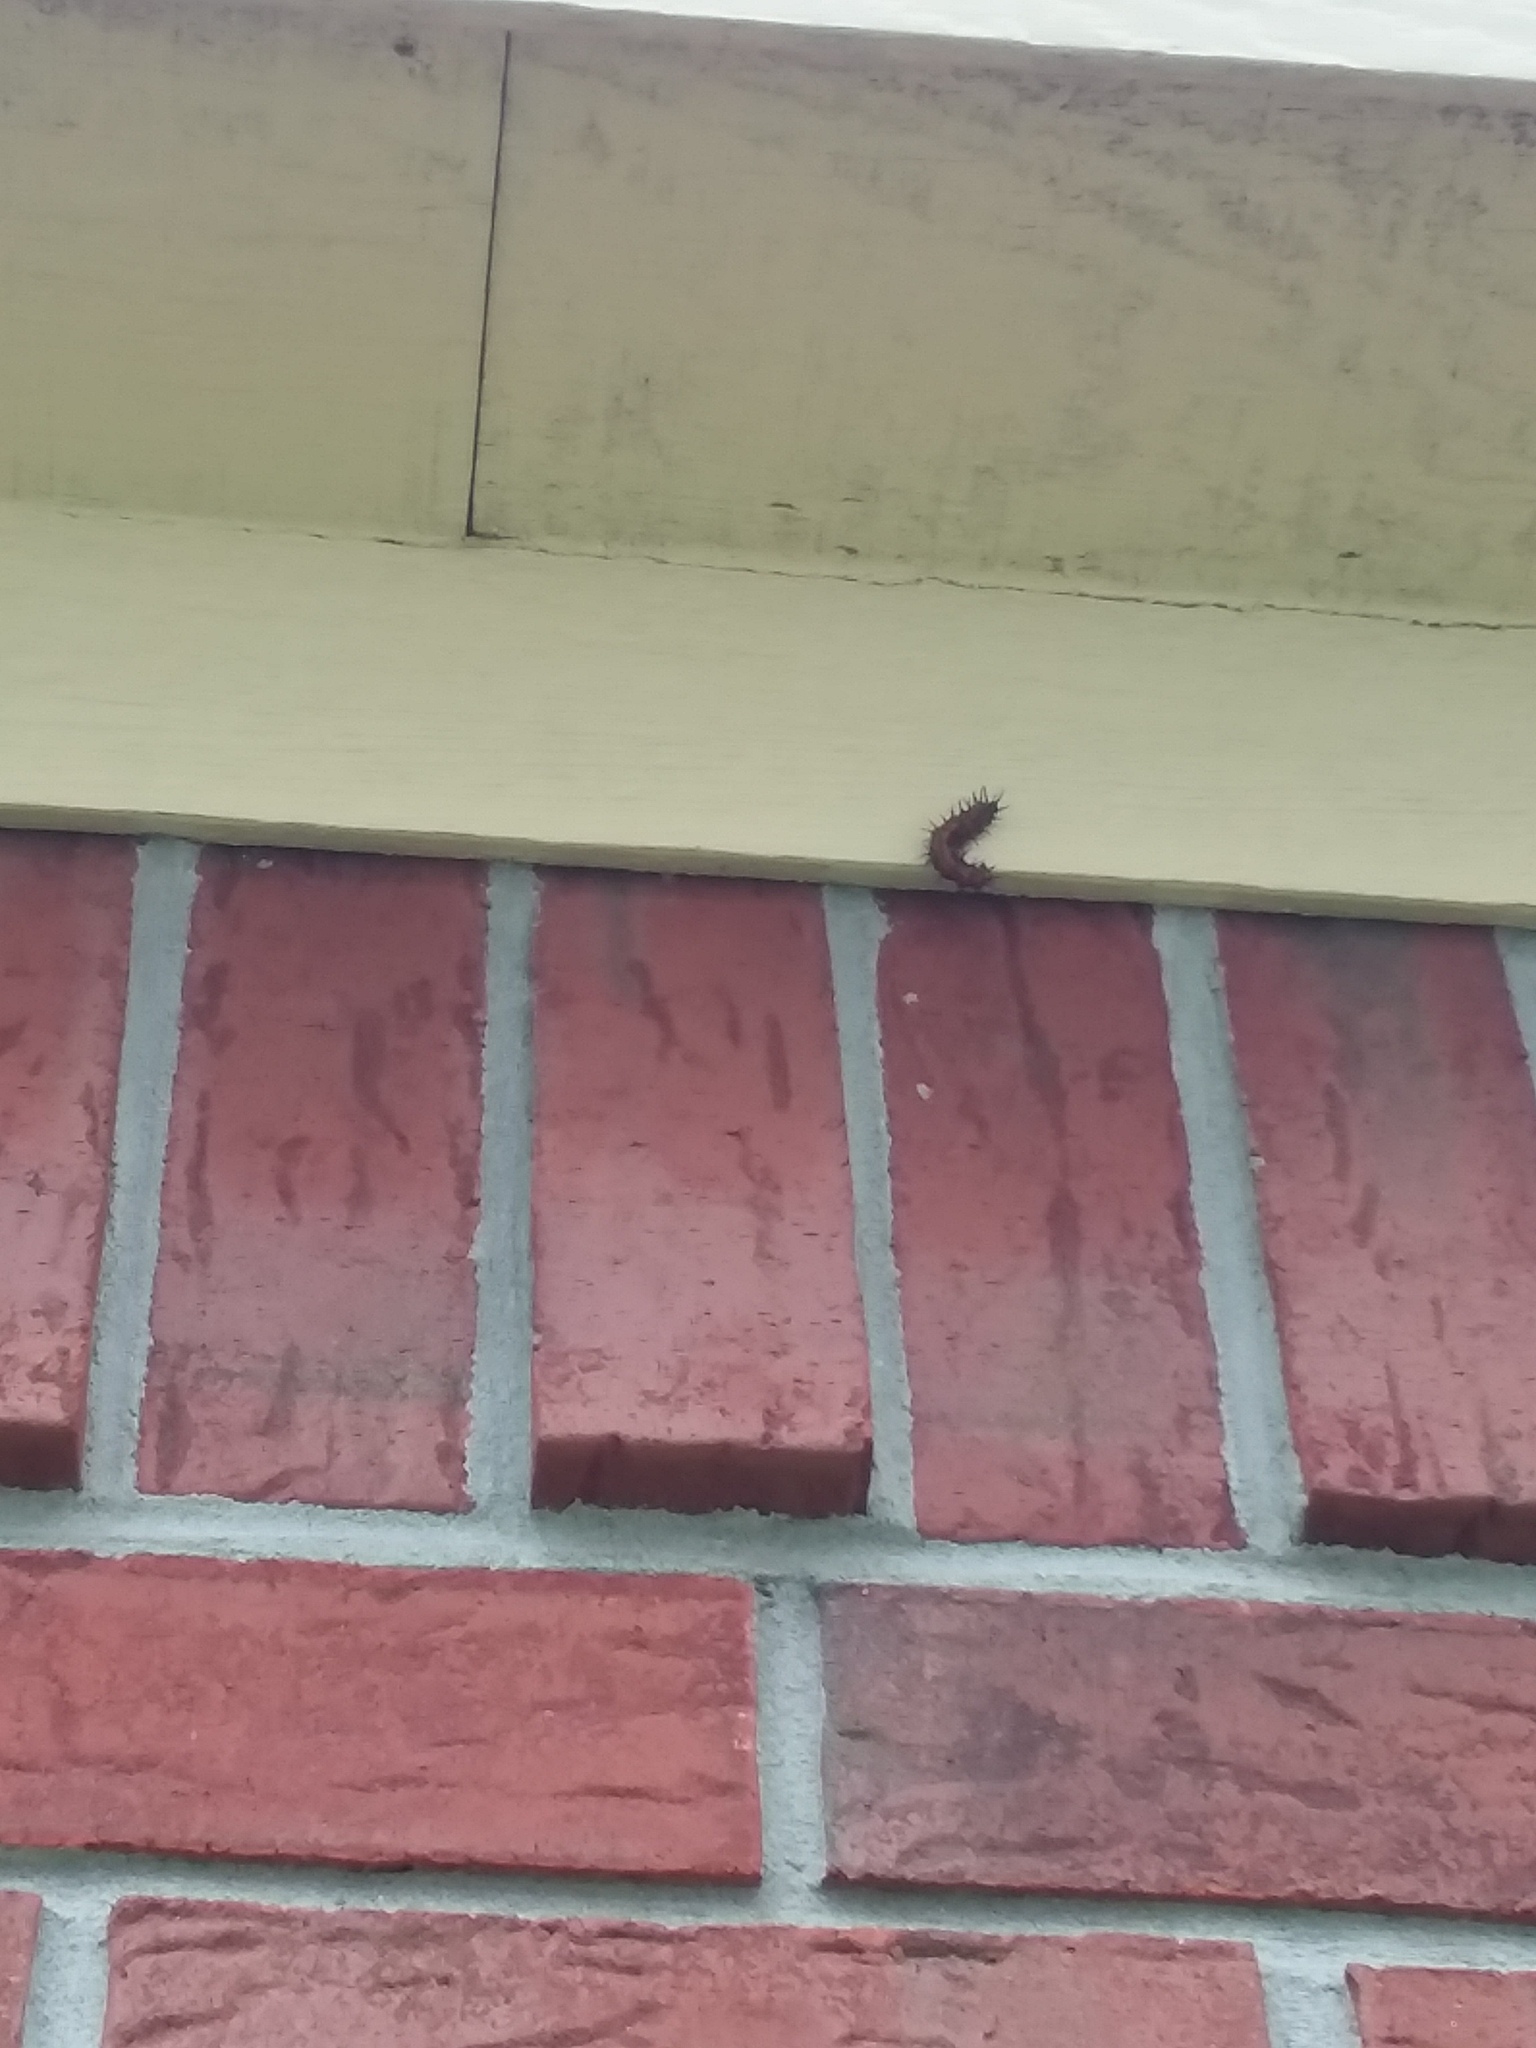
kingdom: Animalia
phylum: Arthropoda
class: Insecta
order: Lepidoptera
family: Nymphalidae
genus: Dione
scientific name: Dione vanillae
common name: Gulf fritillary
